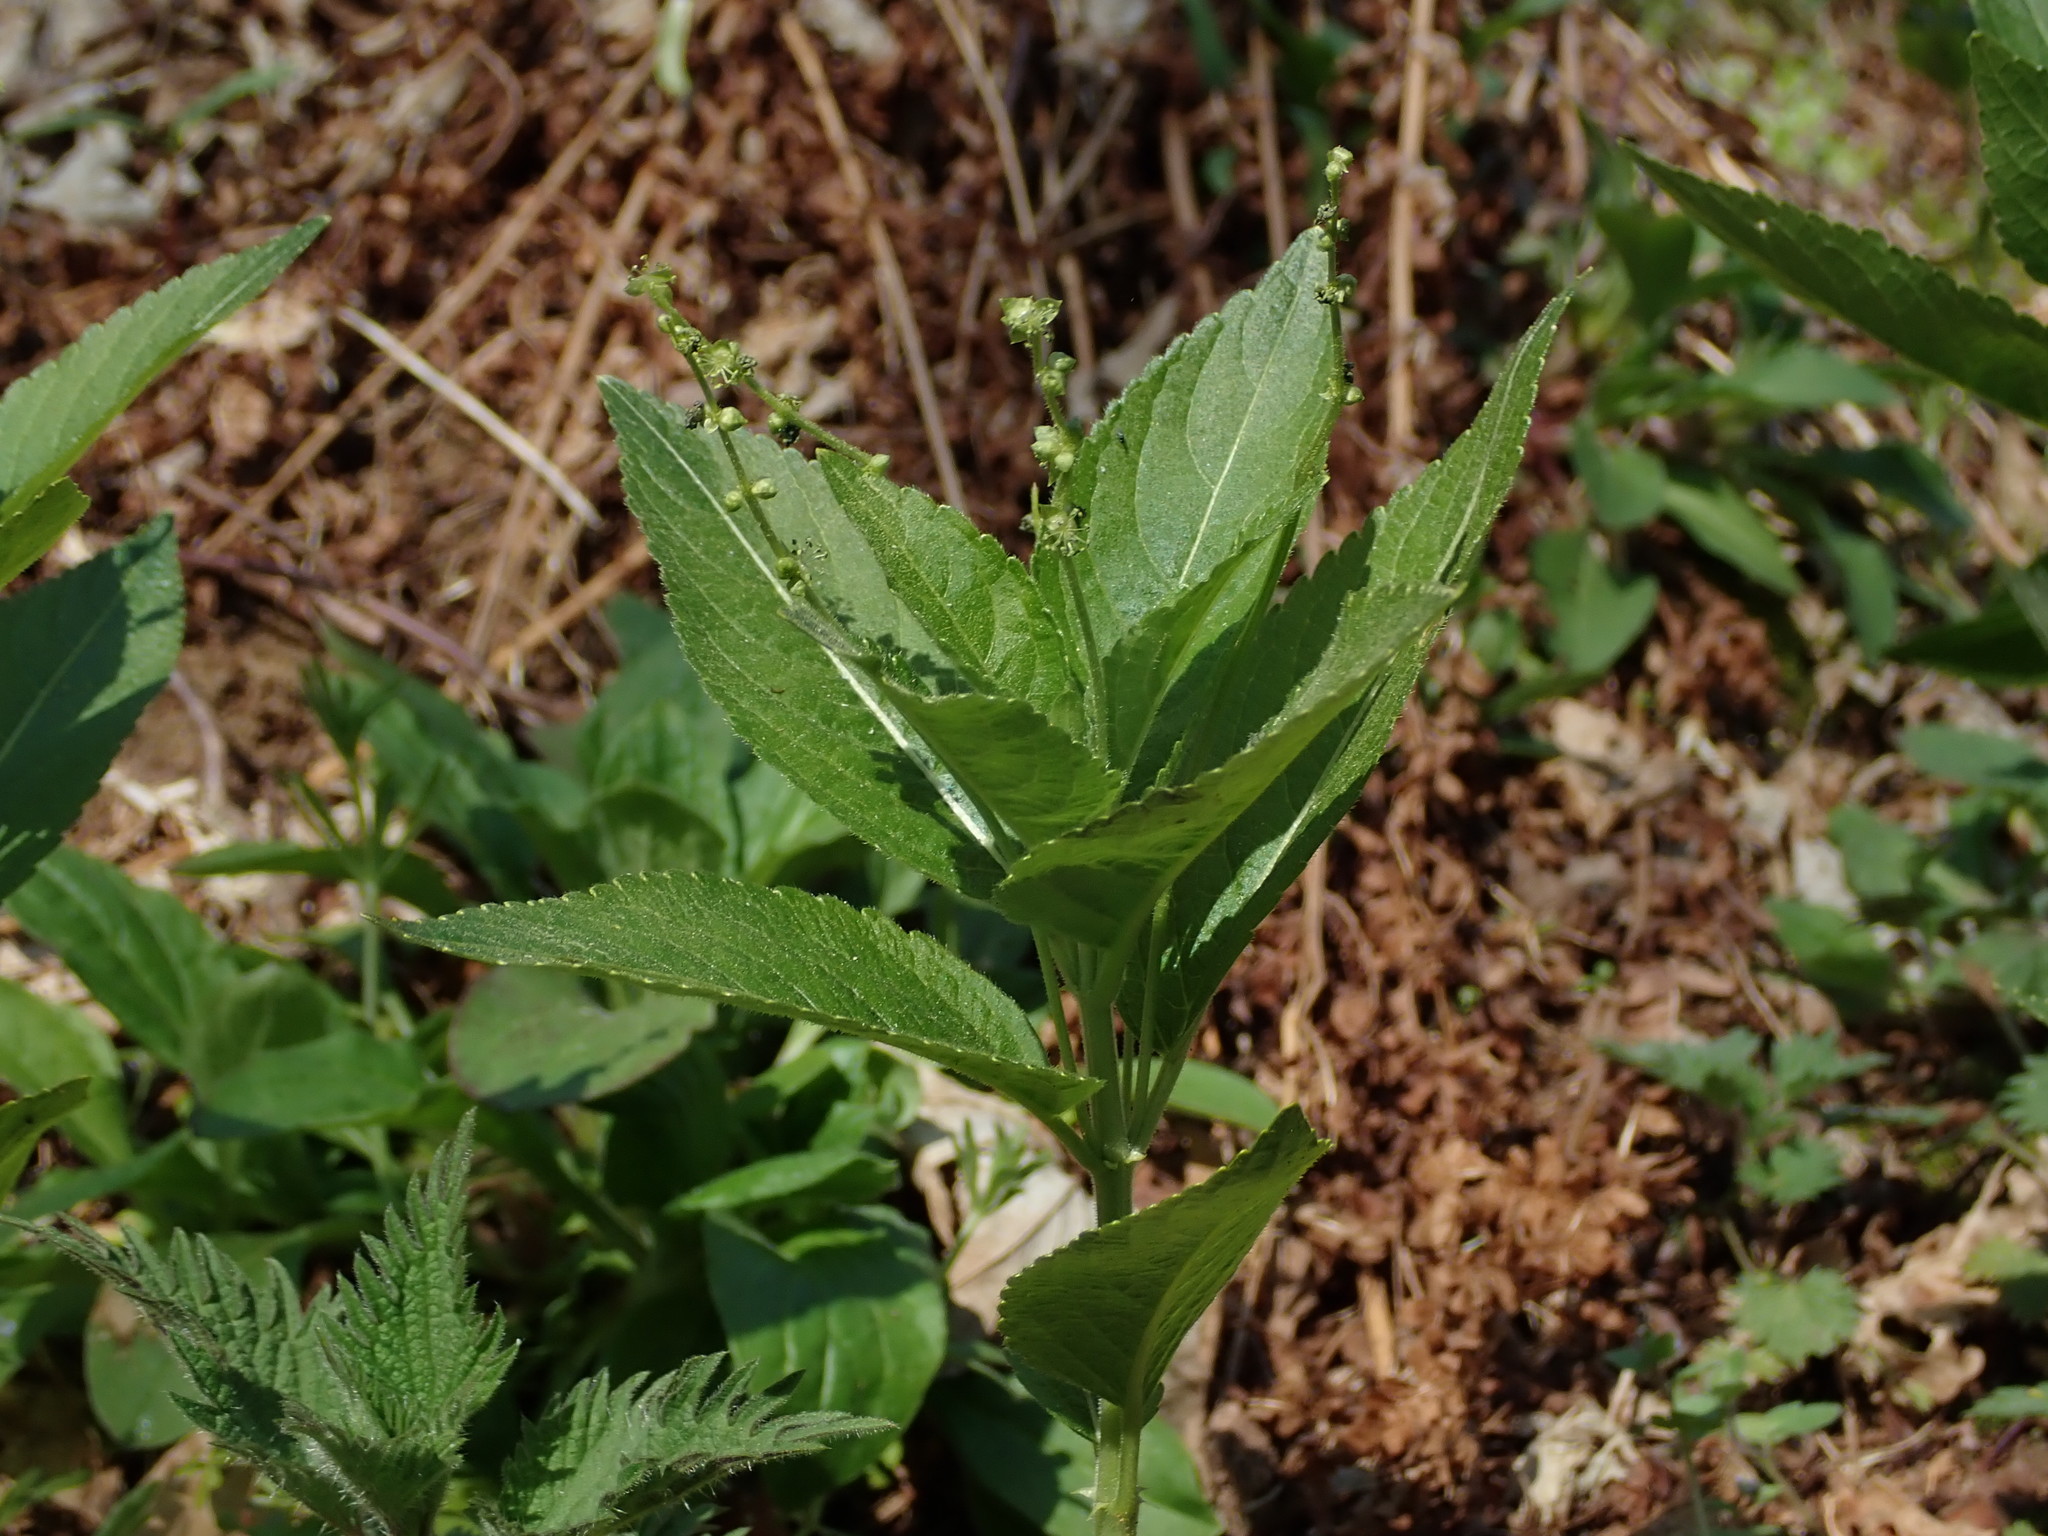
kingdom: Plantae
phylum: Tracheophyta
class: Magnoliopsida
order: Malpighiales
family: Euphorbiaceae
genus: Mercurialis
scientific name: Mercurialis perennis
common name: Dog mercury
